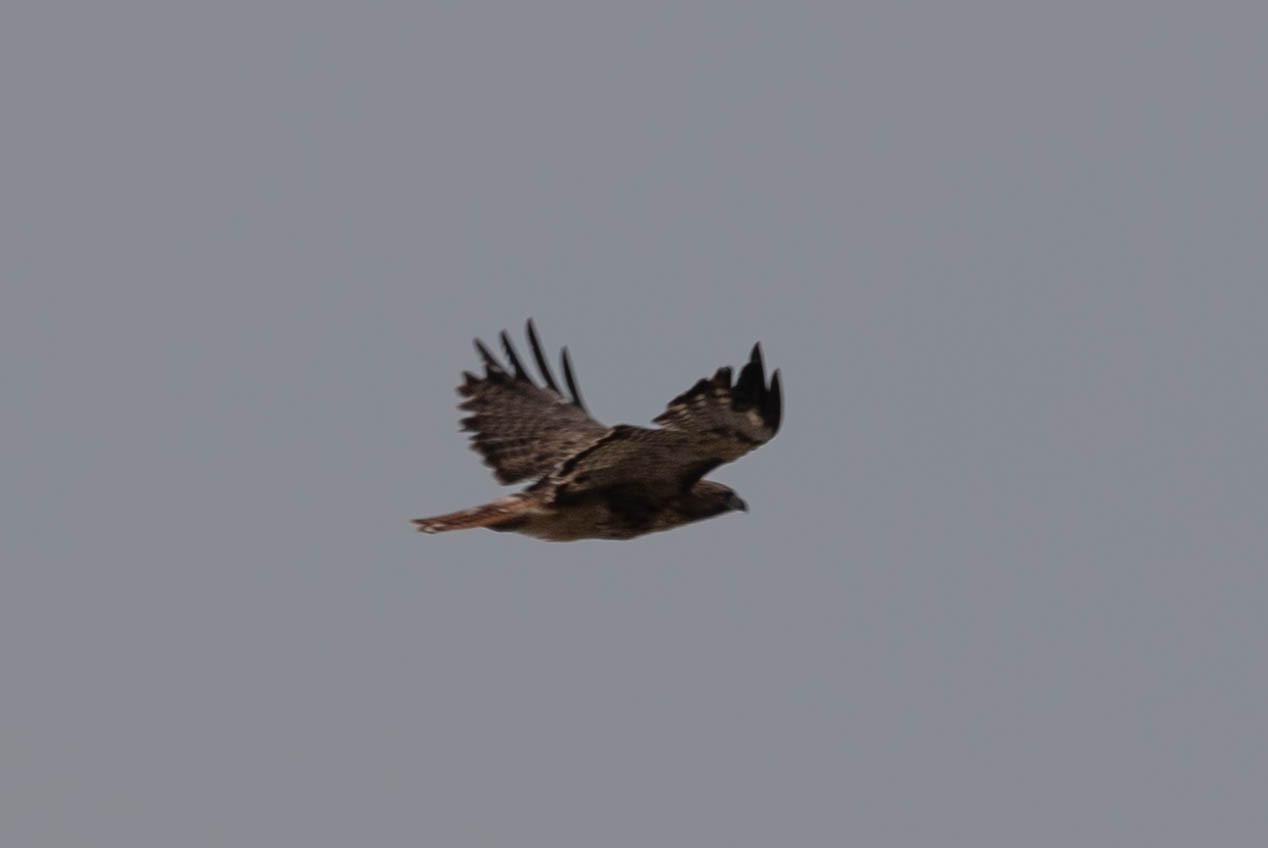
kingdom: Animalia
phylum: Chordata
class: Aves
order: Accipitriformes
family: Accipitridae
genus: Buteo
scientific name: Buteo jamaicensis
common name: Red-tailed hawk
